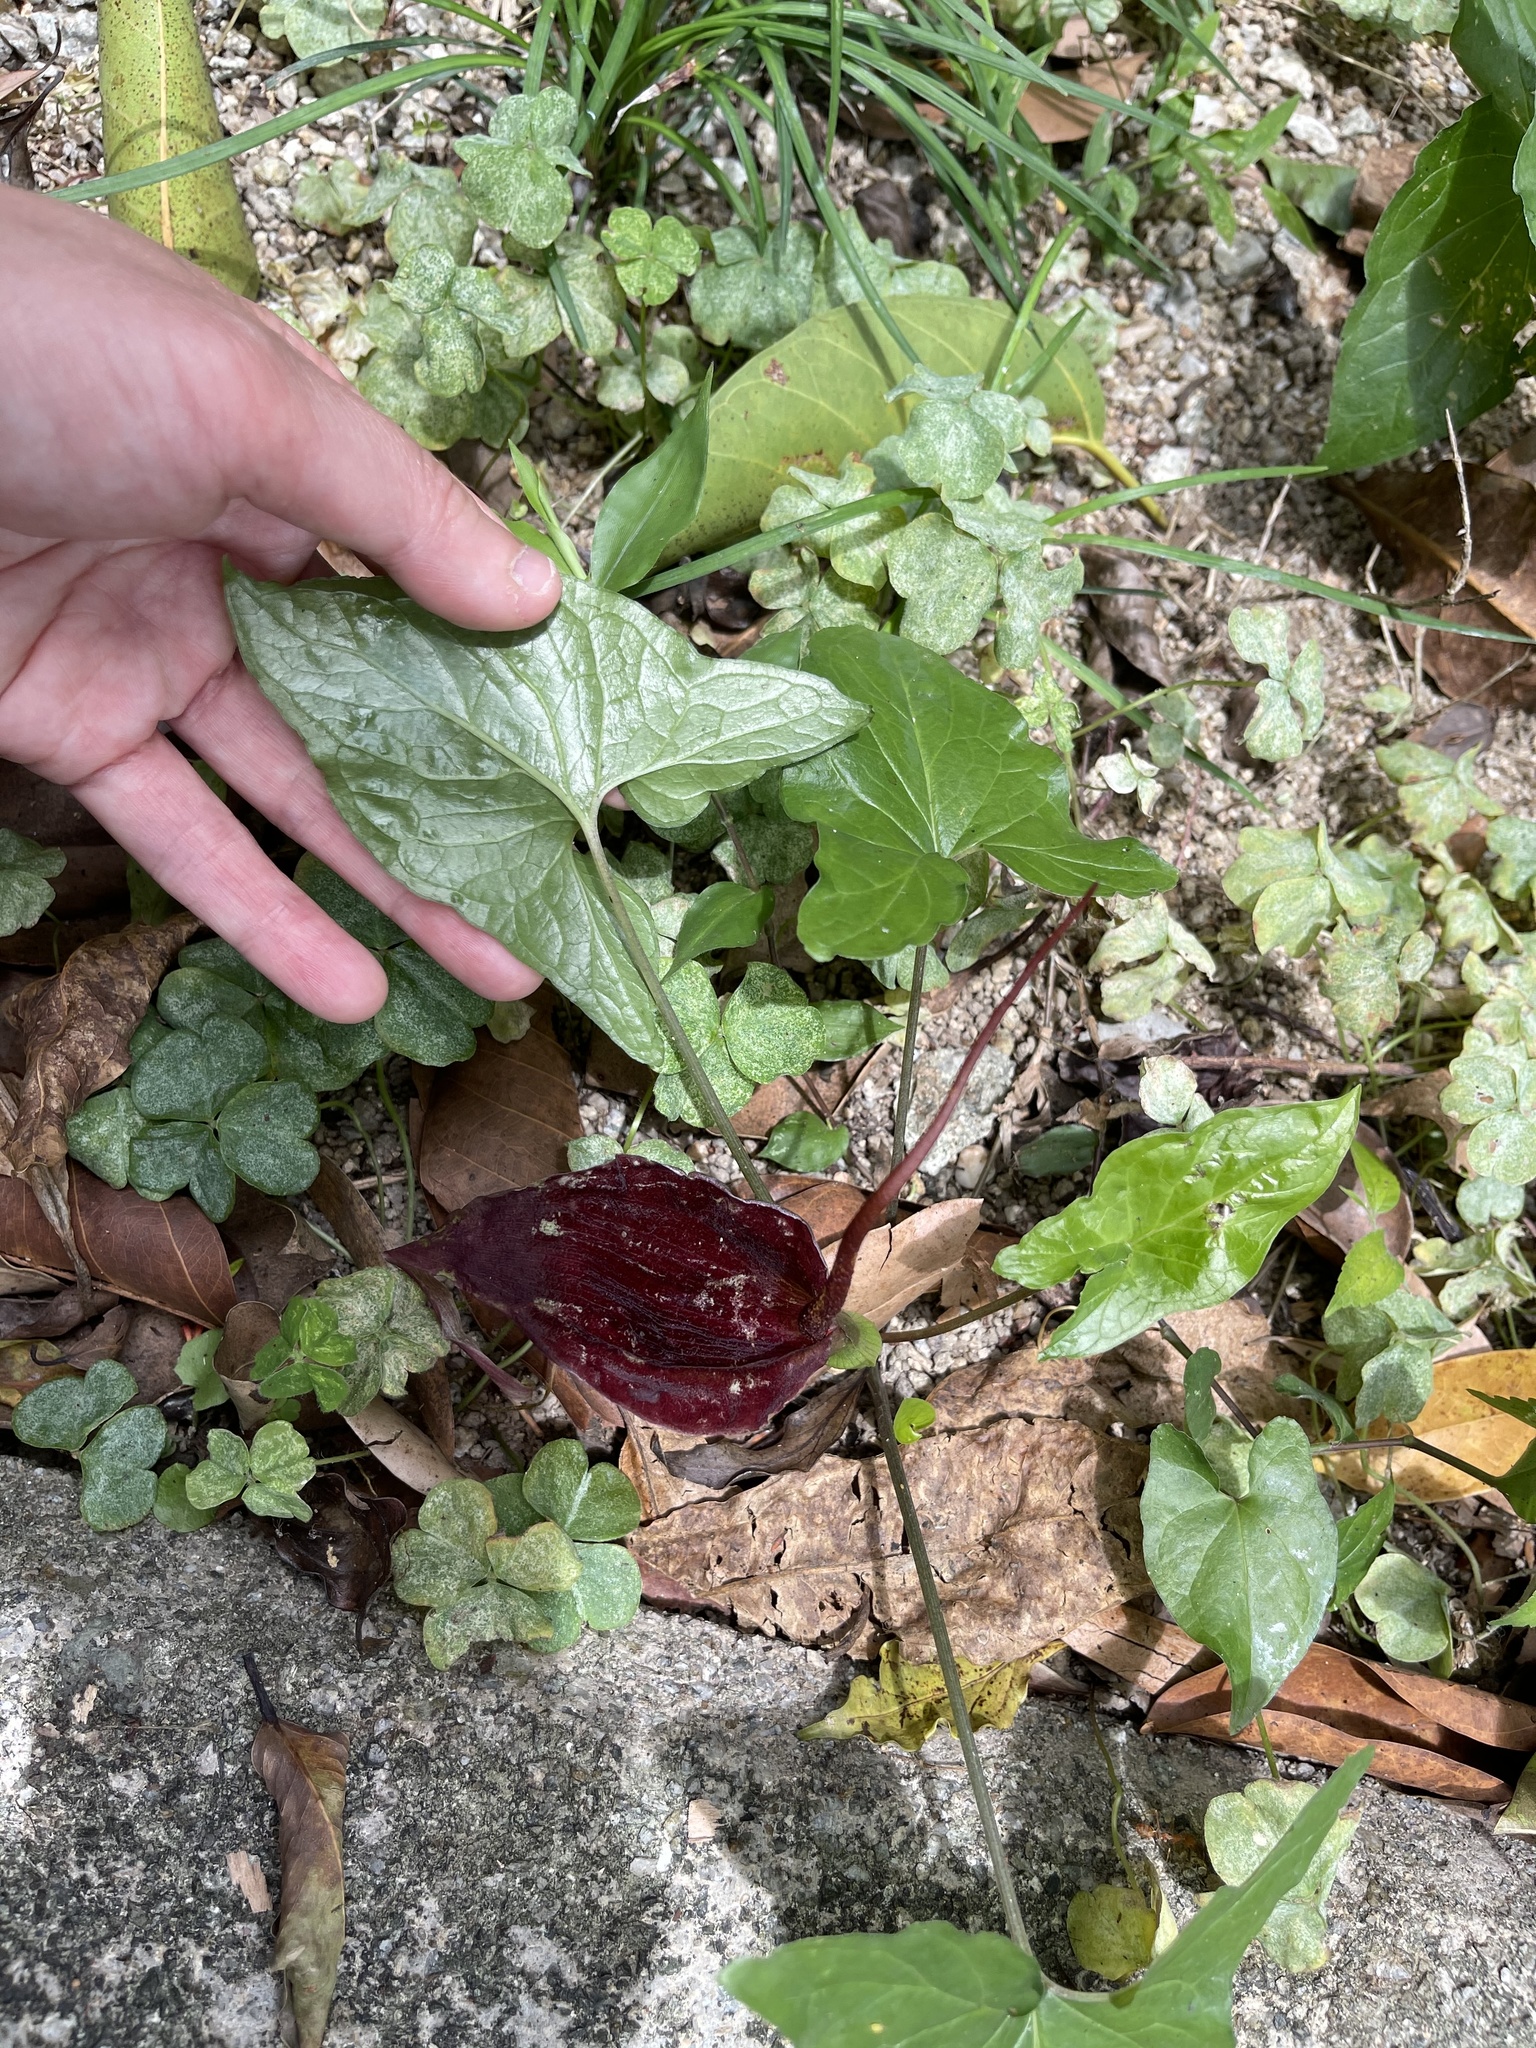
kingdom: Plantae
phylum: Tracheophyta
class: Liliopsida
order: Alismatales
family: Araceae
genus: Typhonium
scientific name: Typhonium blumei
